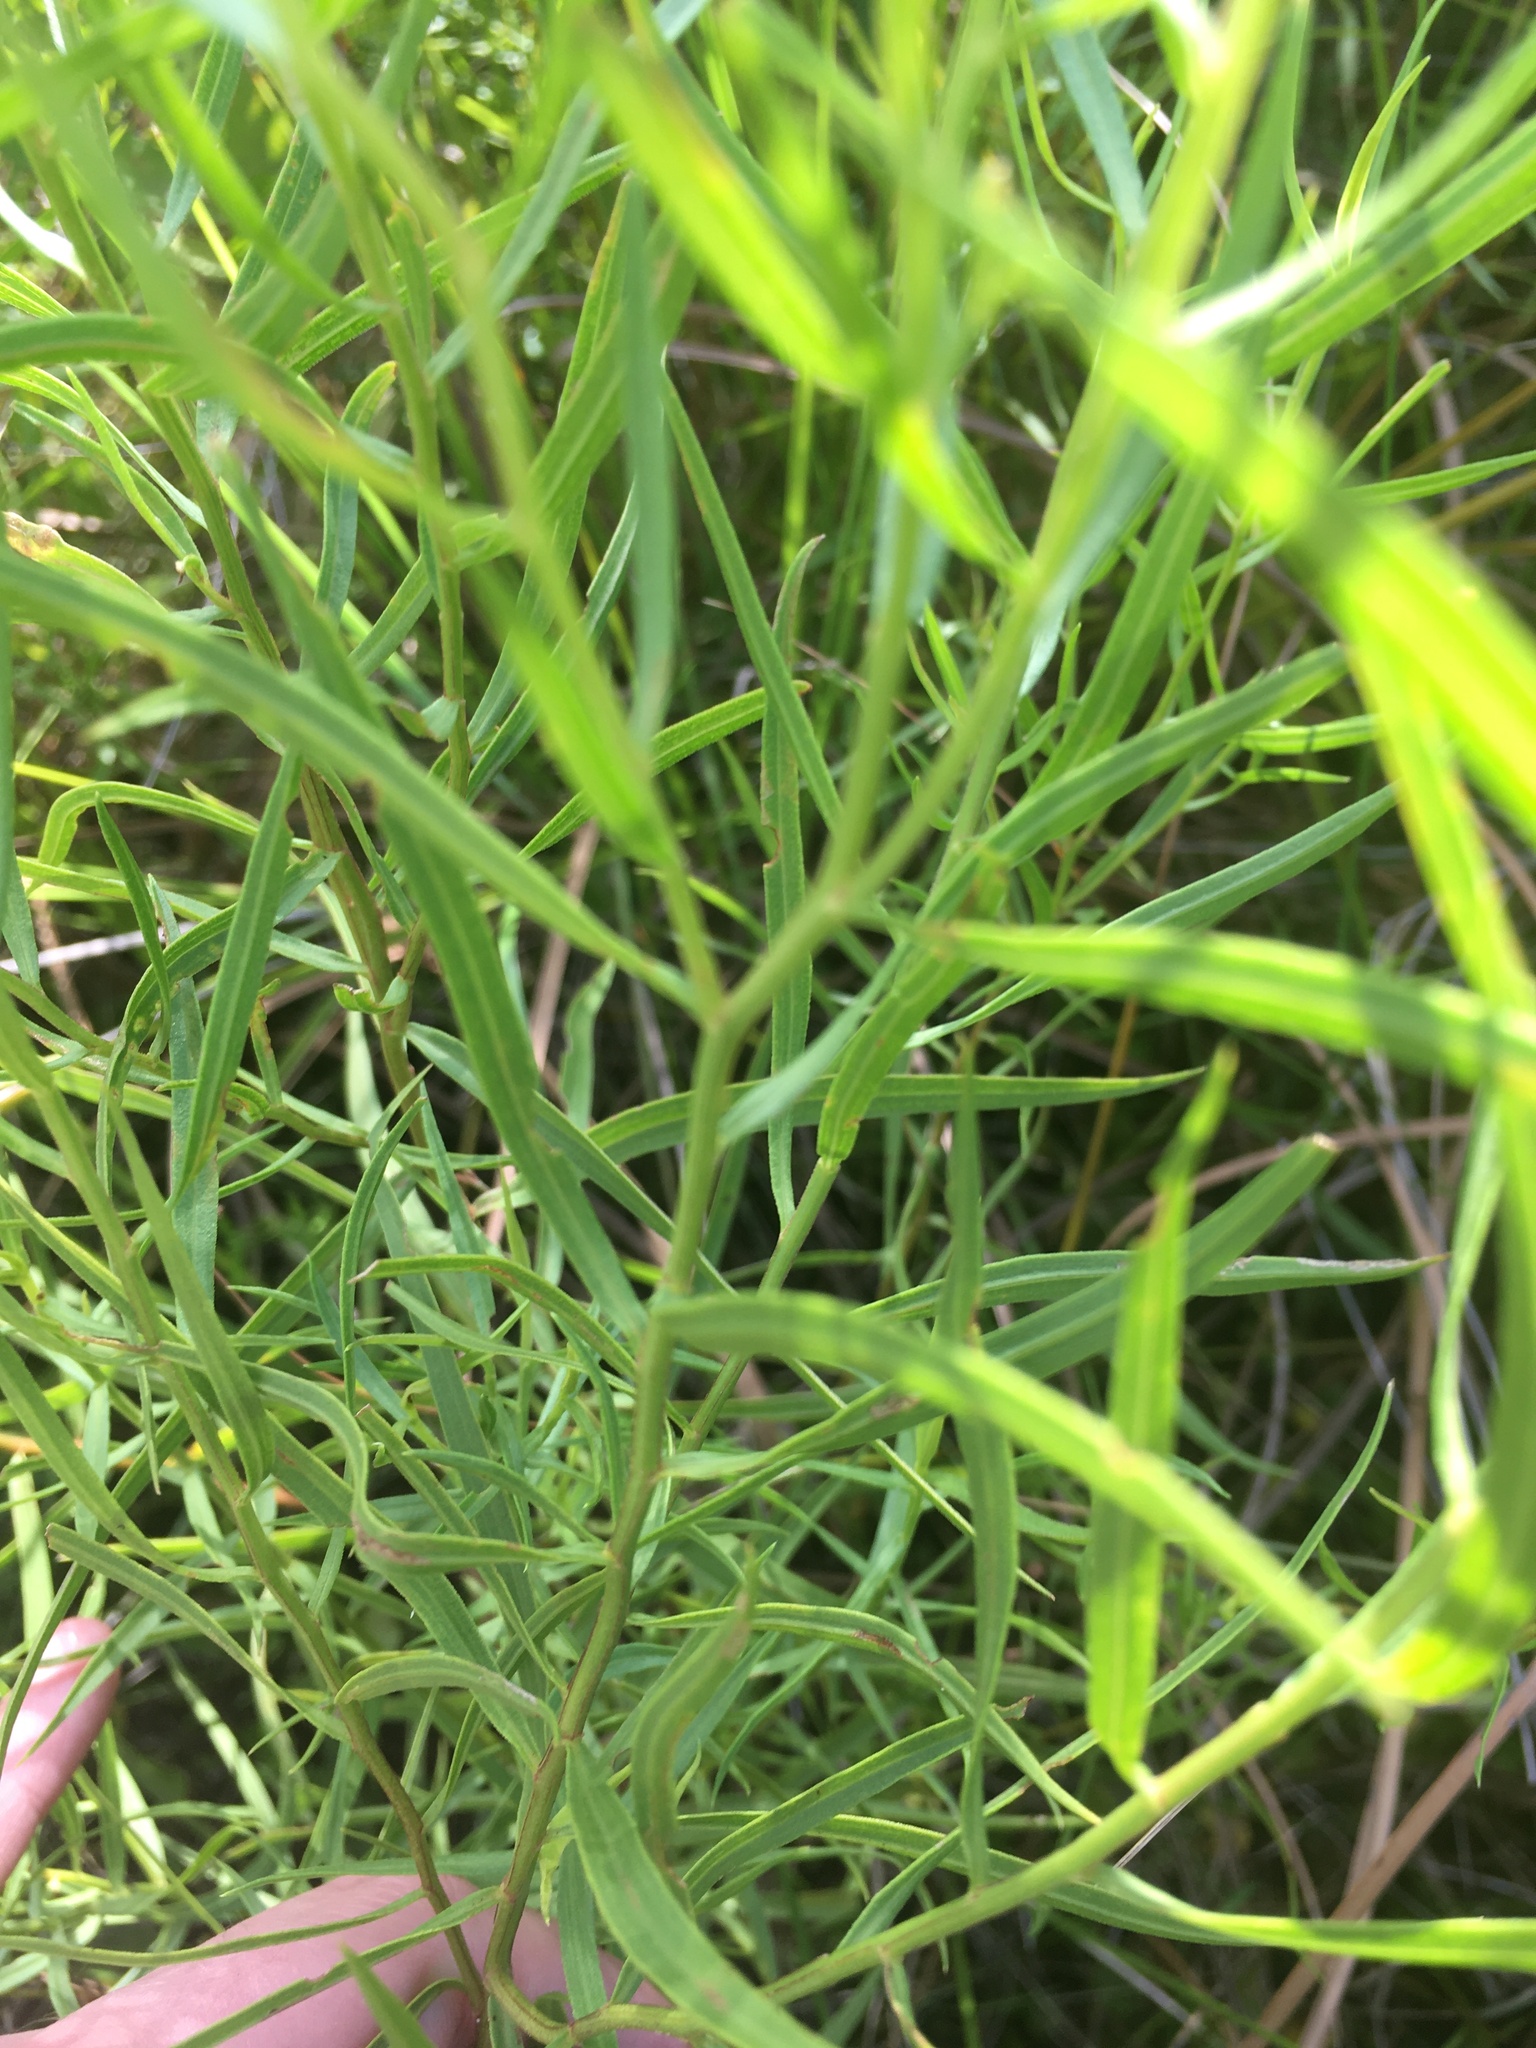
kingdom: Plantae
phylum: Tracheophyta
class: Magnoliopsida
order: Asterales
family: Asteraceae
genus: Euthamia
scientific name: Euthamia weakleyi
